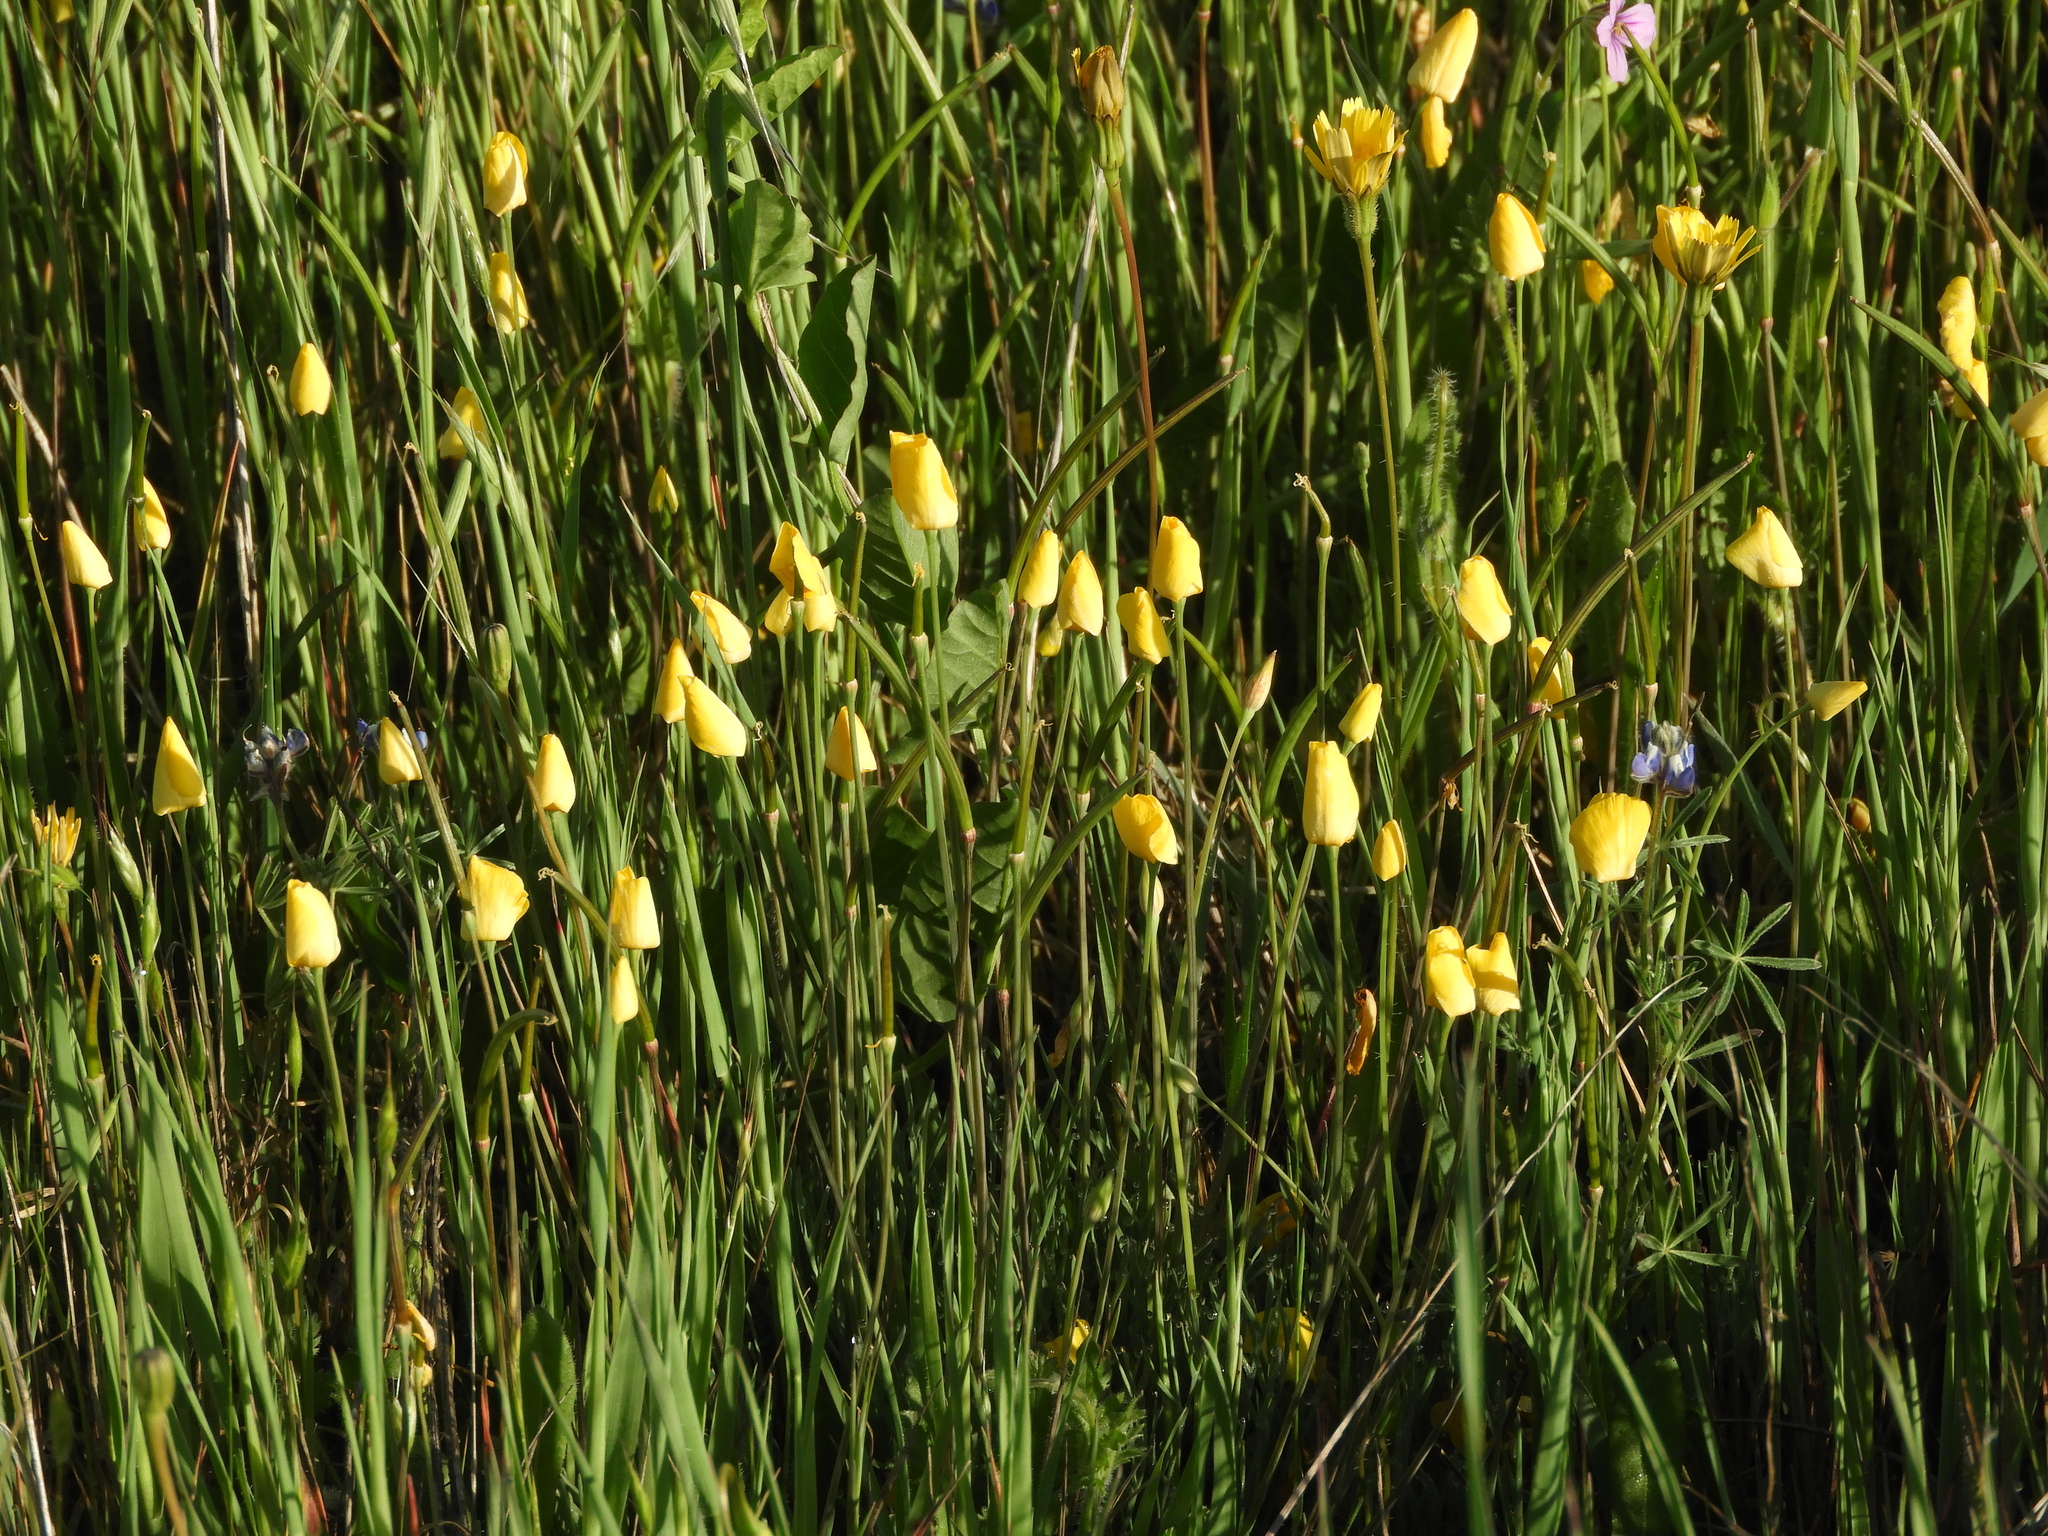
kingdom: Plantae
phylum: Tracheophyta
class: Magnoliopsida
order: Ranunculales
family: Papaveraceae
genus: Eschscholzia
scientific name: Eschscholzia lobbii
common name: Frying-pans
